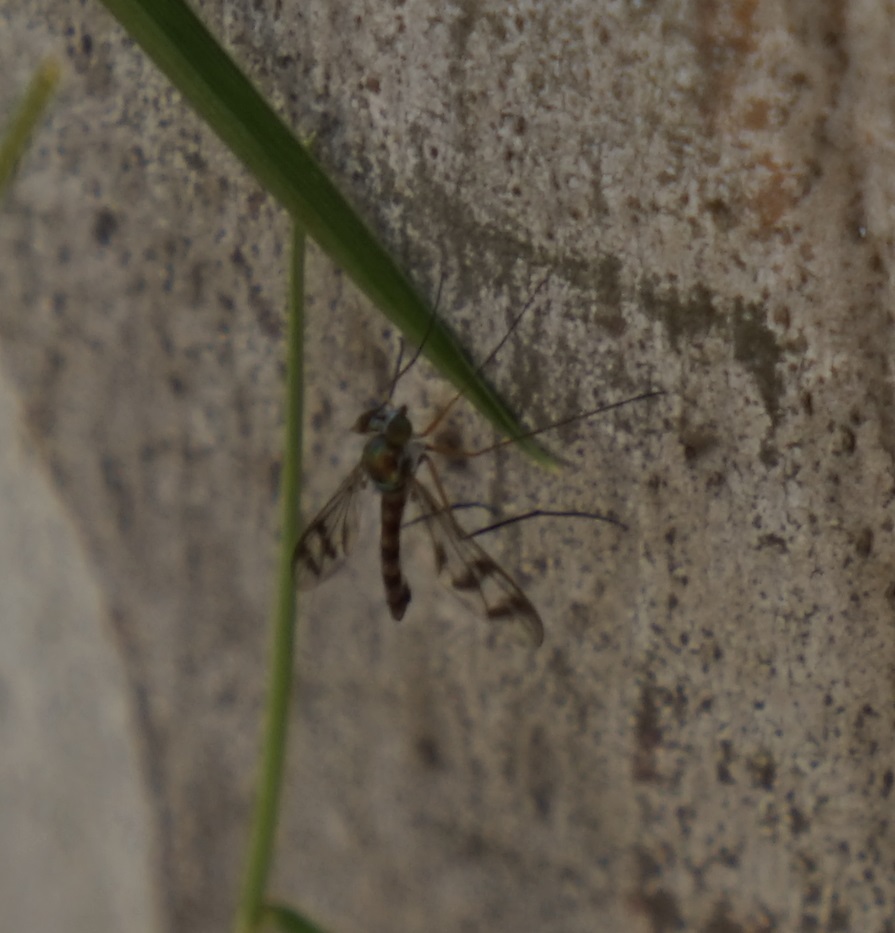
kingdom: Animalia
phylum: Arthropoda
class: Insecta
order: Diptera
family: Dolichopodidae
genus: Heteropsilopus
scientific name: Heteropsilopus squamifer
